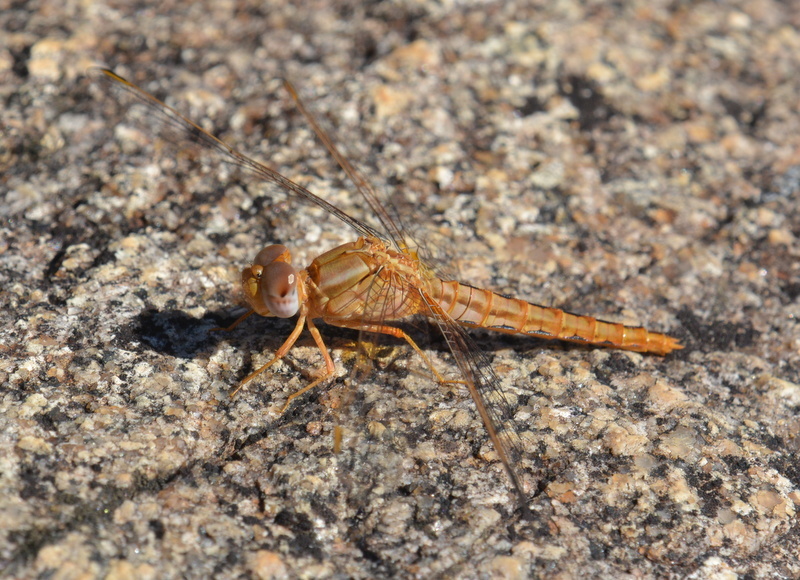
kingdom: Animalia
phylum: Arthropoda
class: Insecta
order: Odonata
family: Libellulidae
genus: Crocothemis
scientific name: Crocothemis sanguinolenta
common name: Little scarlet
